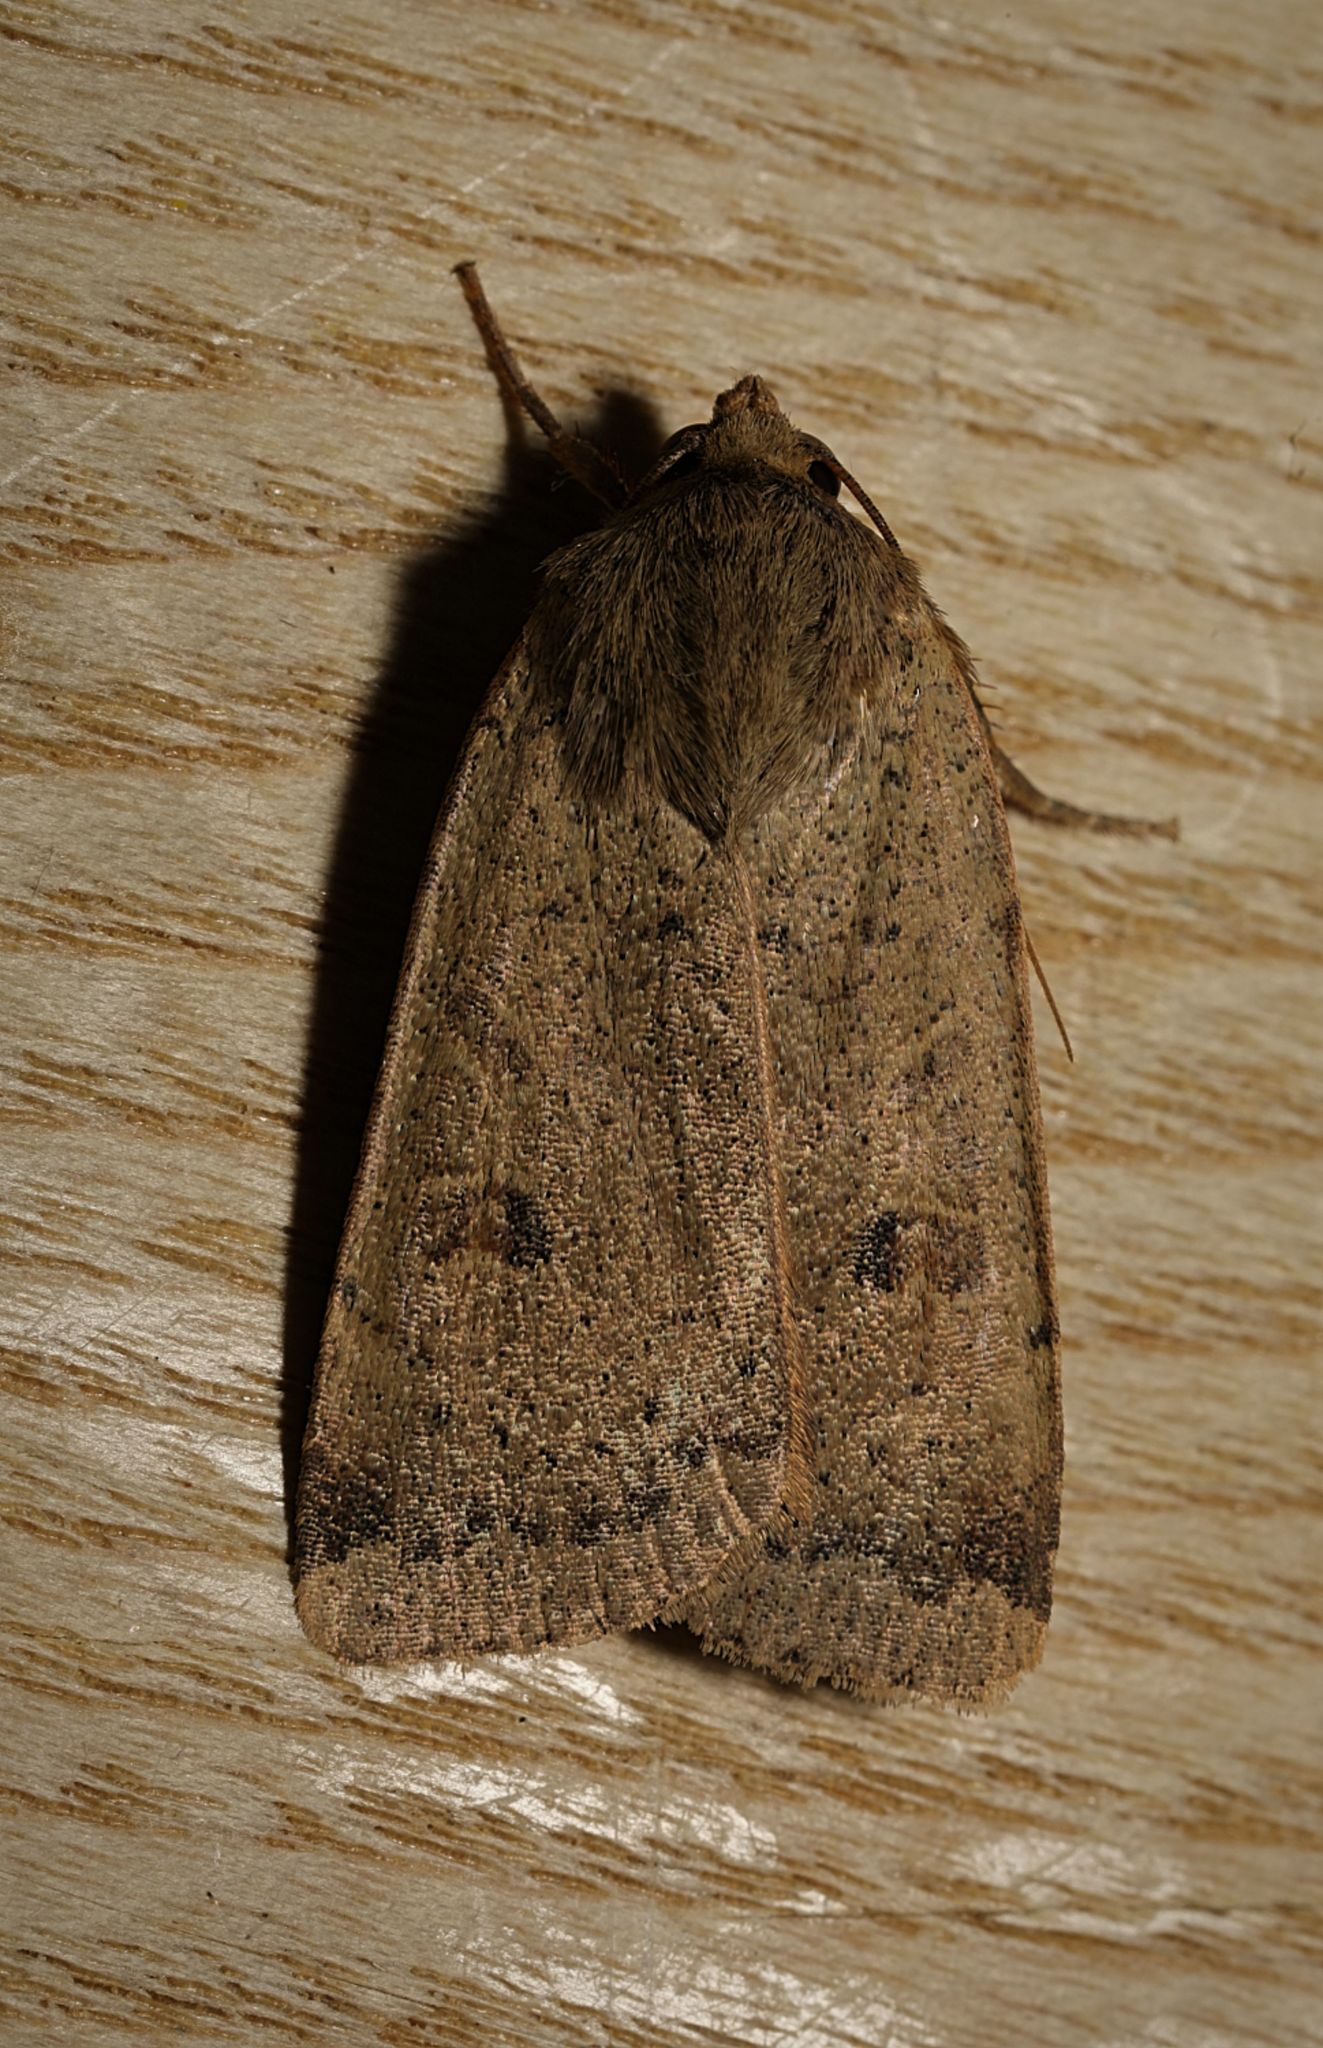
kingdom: Animalia
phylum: Arthropoda
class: Insecta
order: Lepidoptera
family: Noctuidae
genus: Noctua
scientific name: Noctua comes
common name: Lesser yellow underwing
